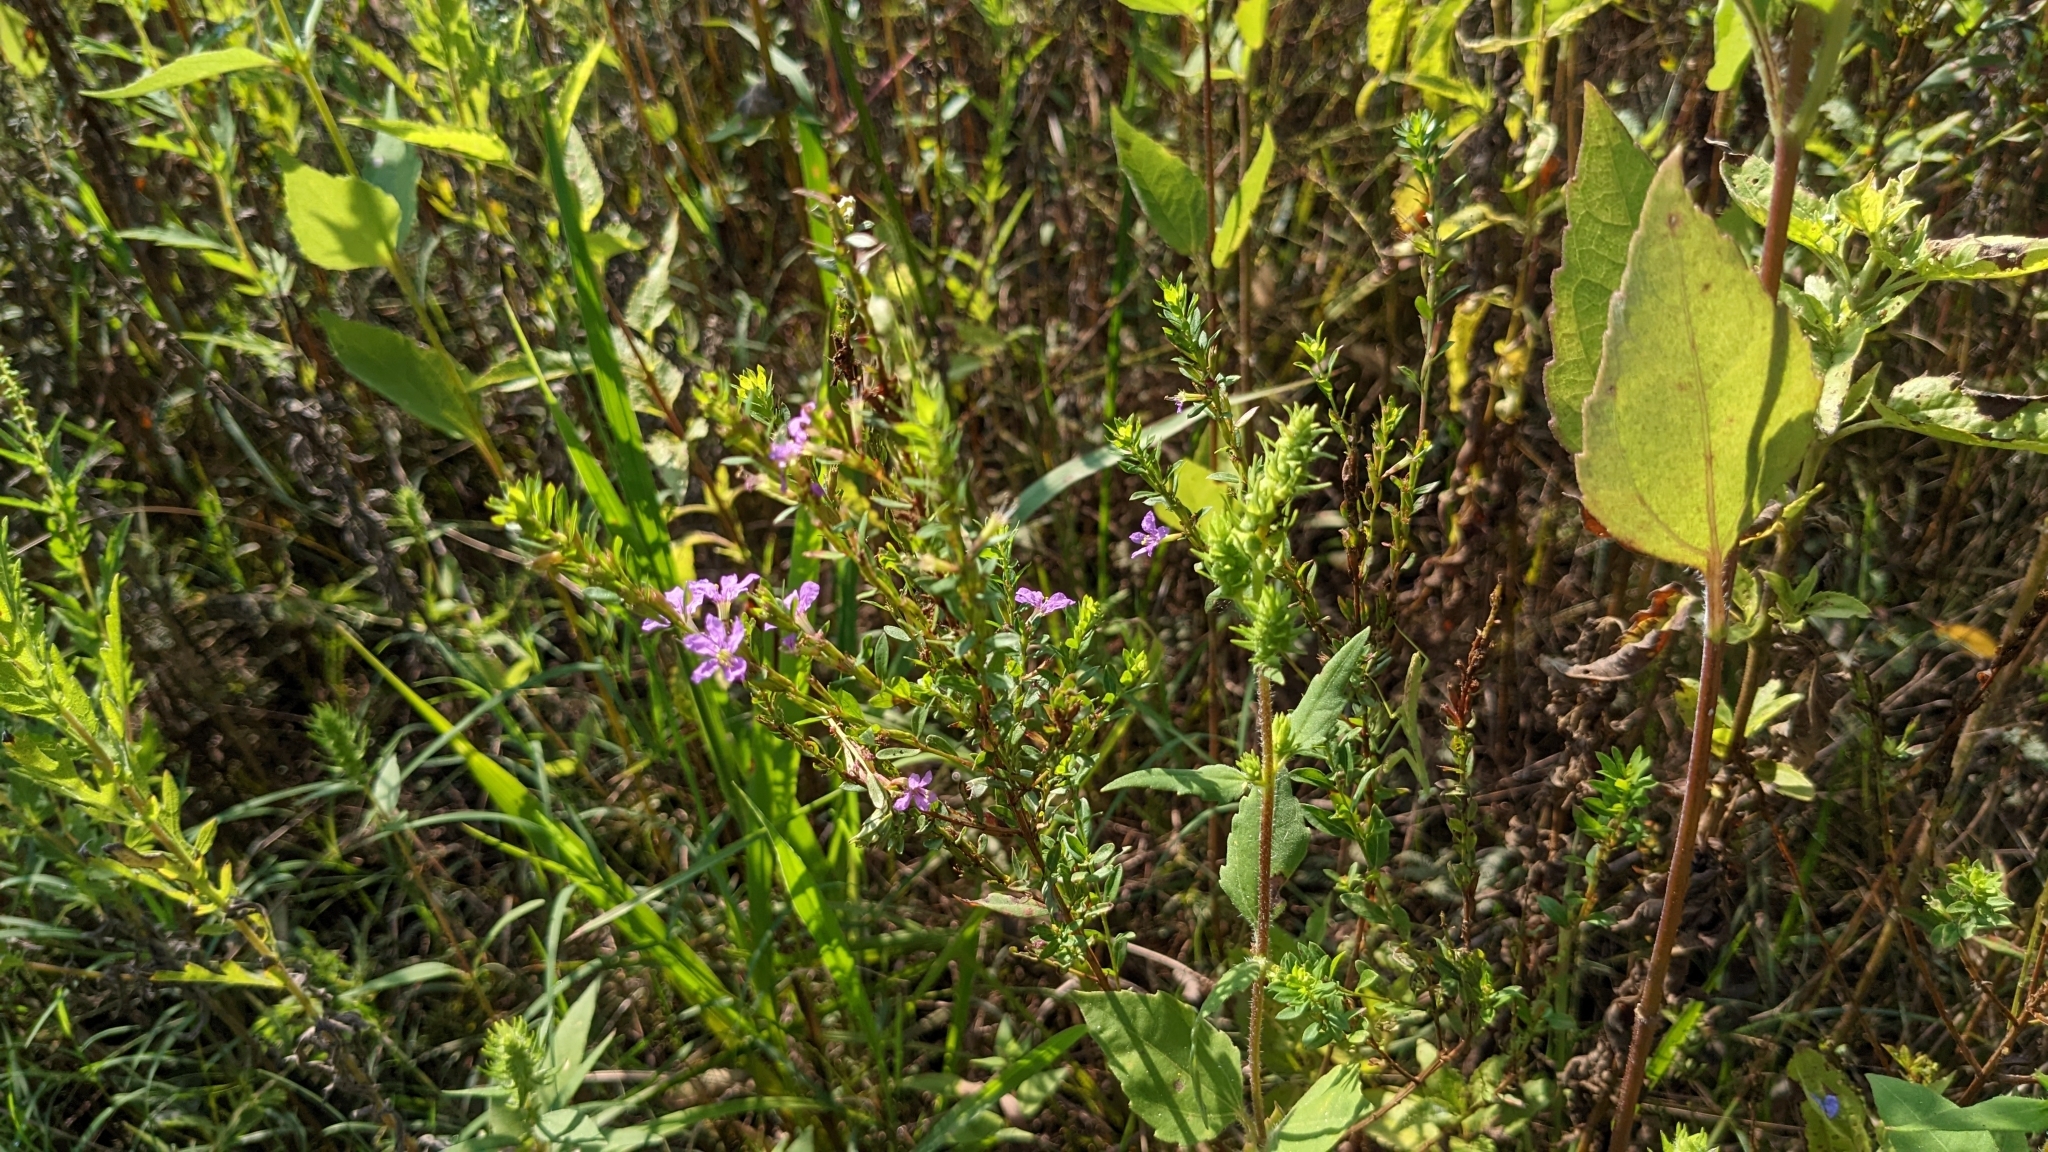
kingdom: Plantae
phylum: Tracheophyta
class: Magnoliopsida
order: Myrtales
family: Lythraceae
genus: Lythrum
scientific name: Lythrum alatum
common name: Winged loosestrife
